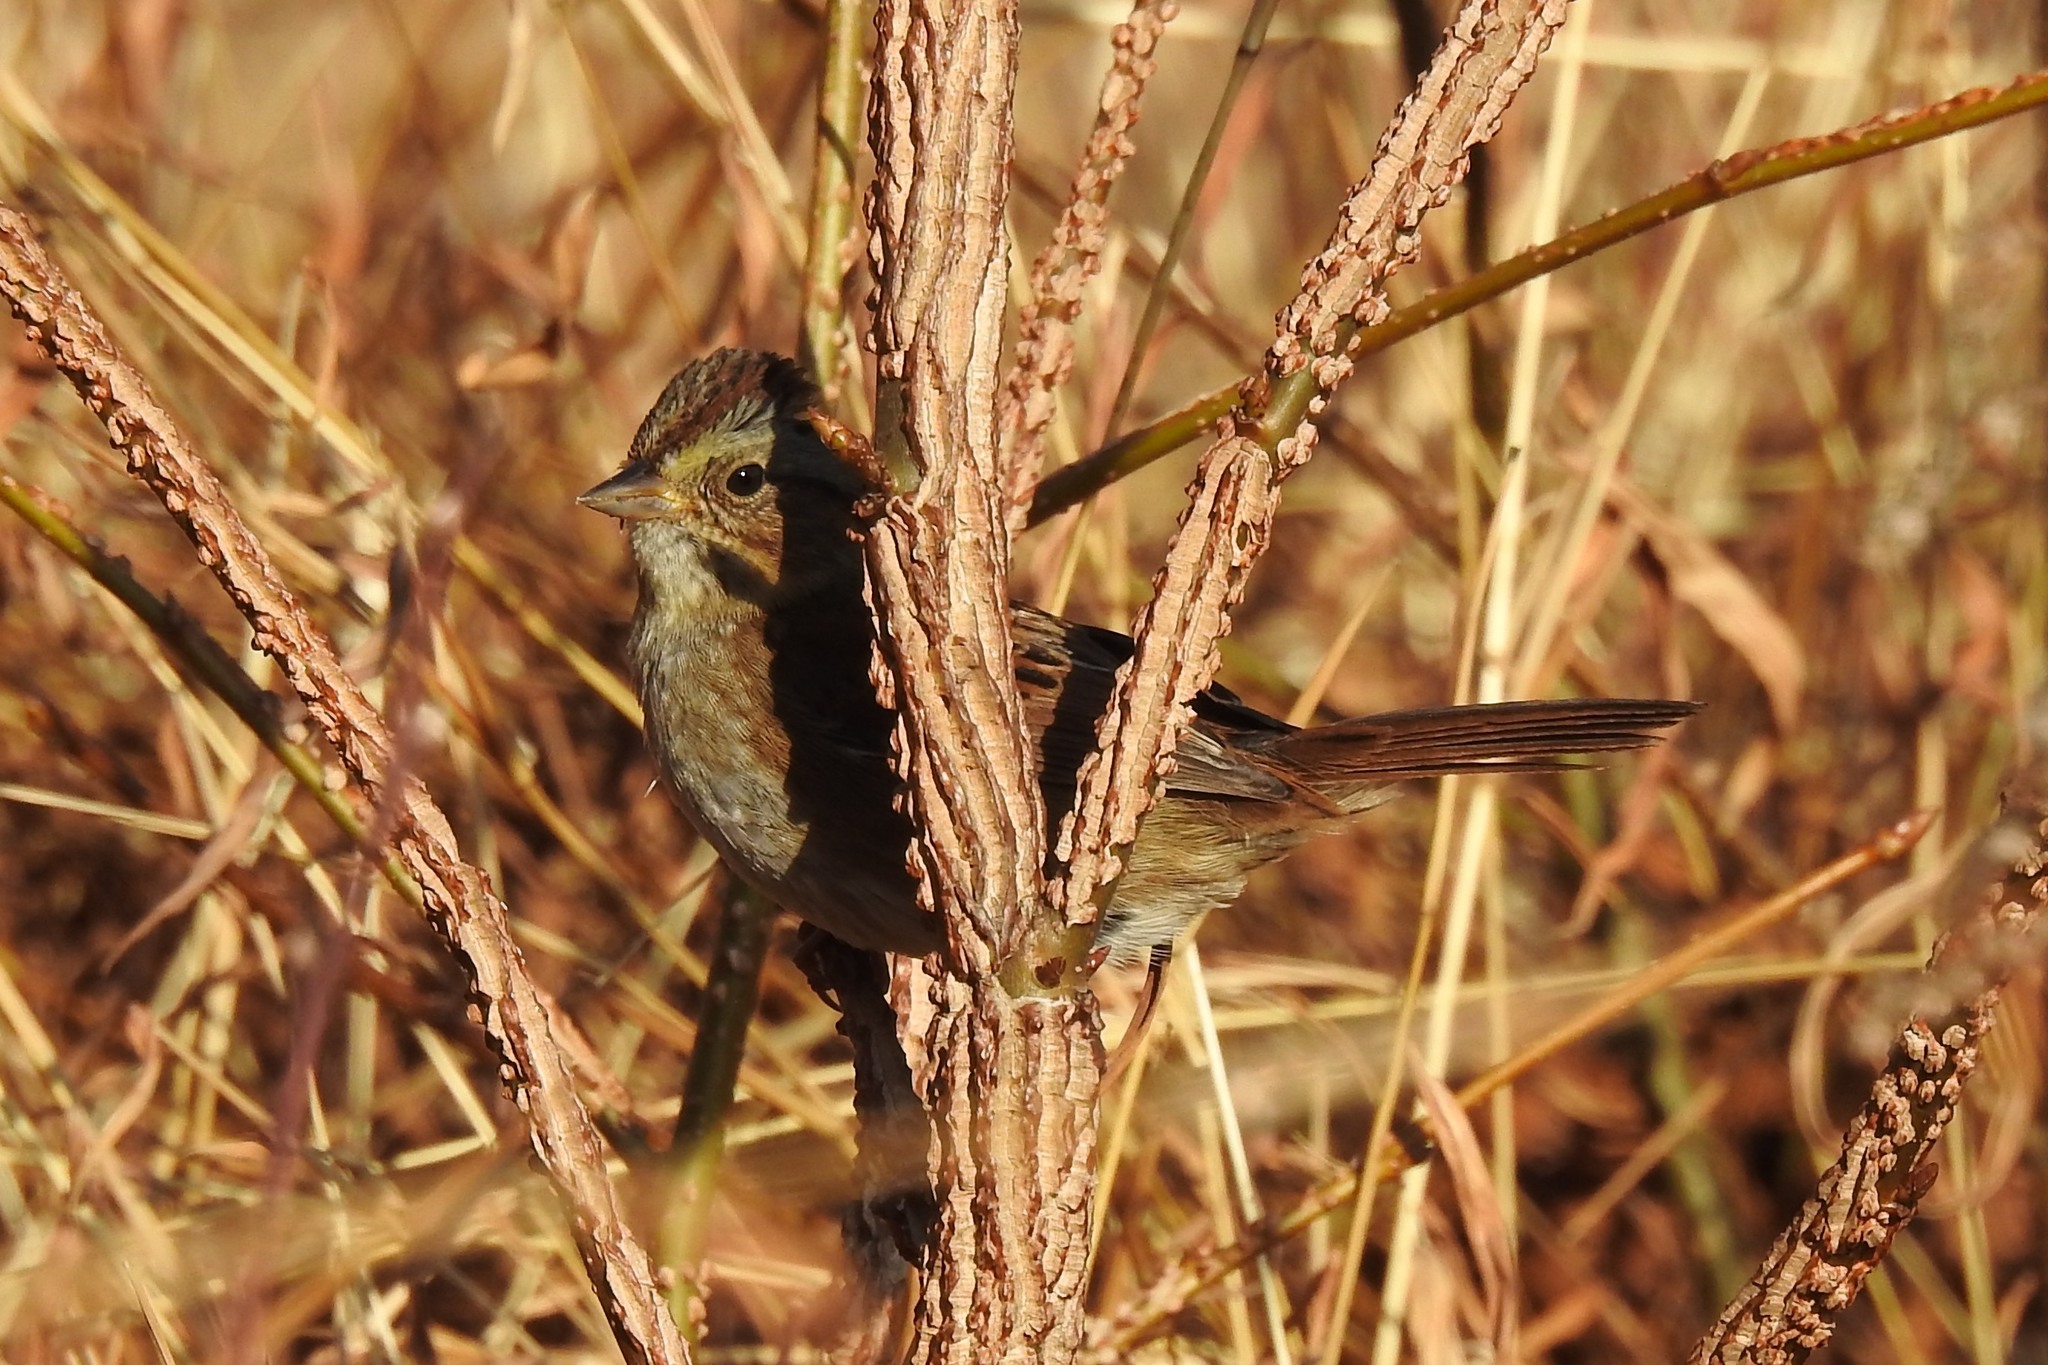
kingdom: Animalia
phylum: Chordata
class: Aves
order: Passeriformes
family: Passerellidae
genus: Melospiza
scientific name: Melospiza georgiana
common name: Swamp sparrow
